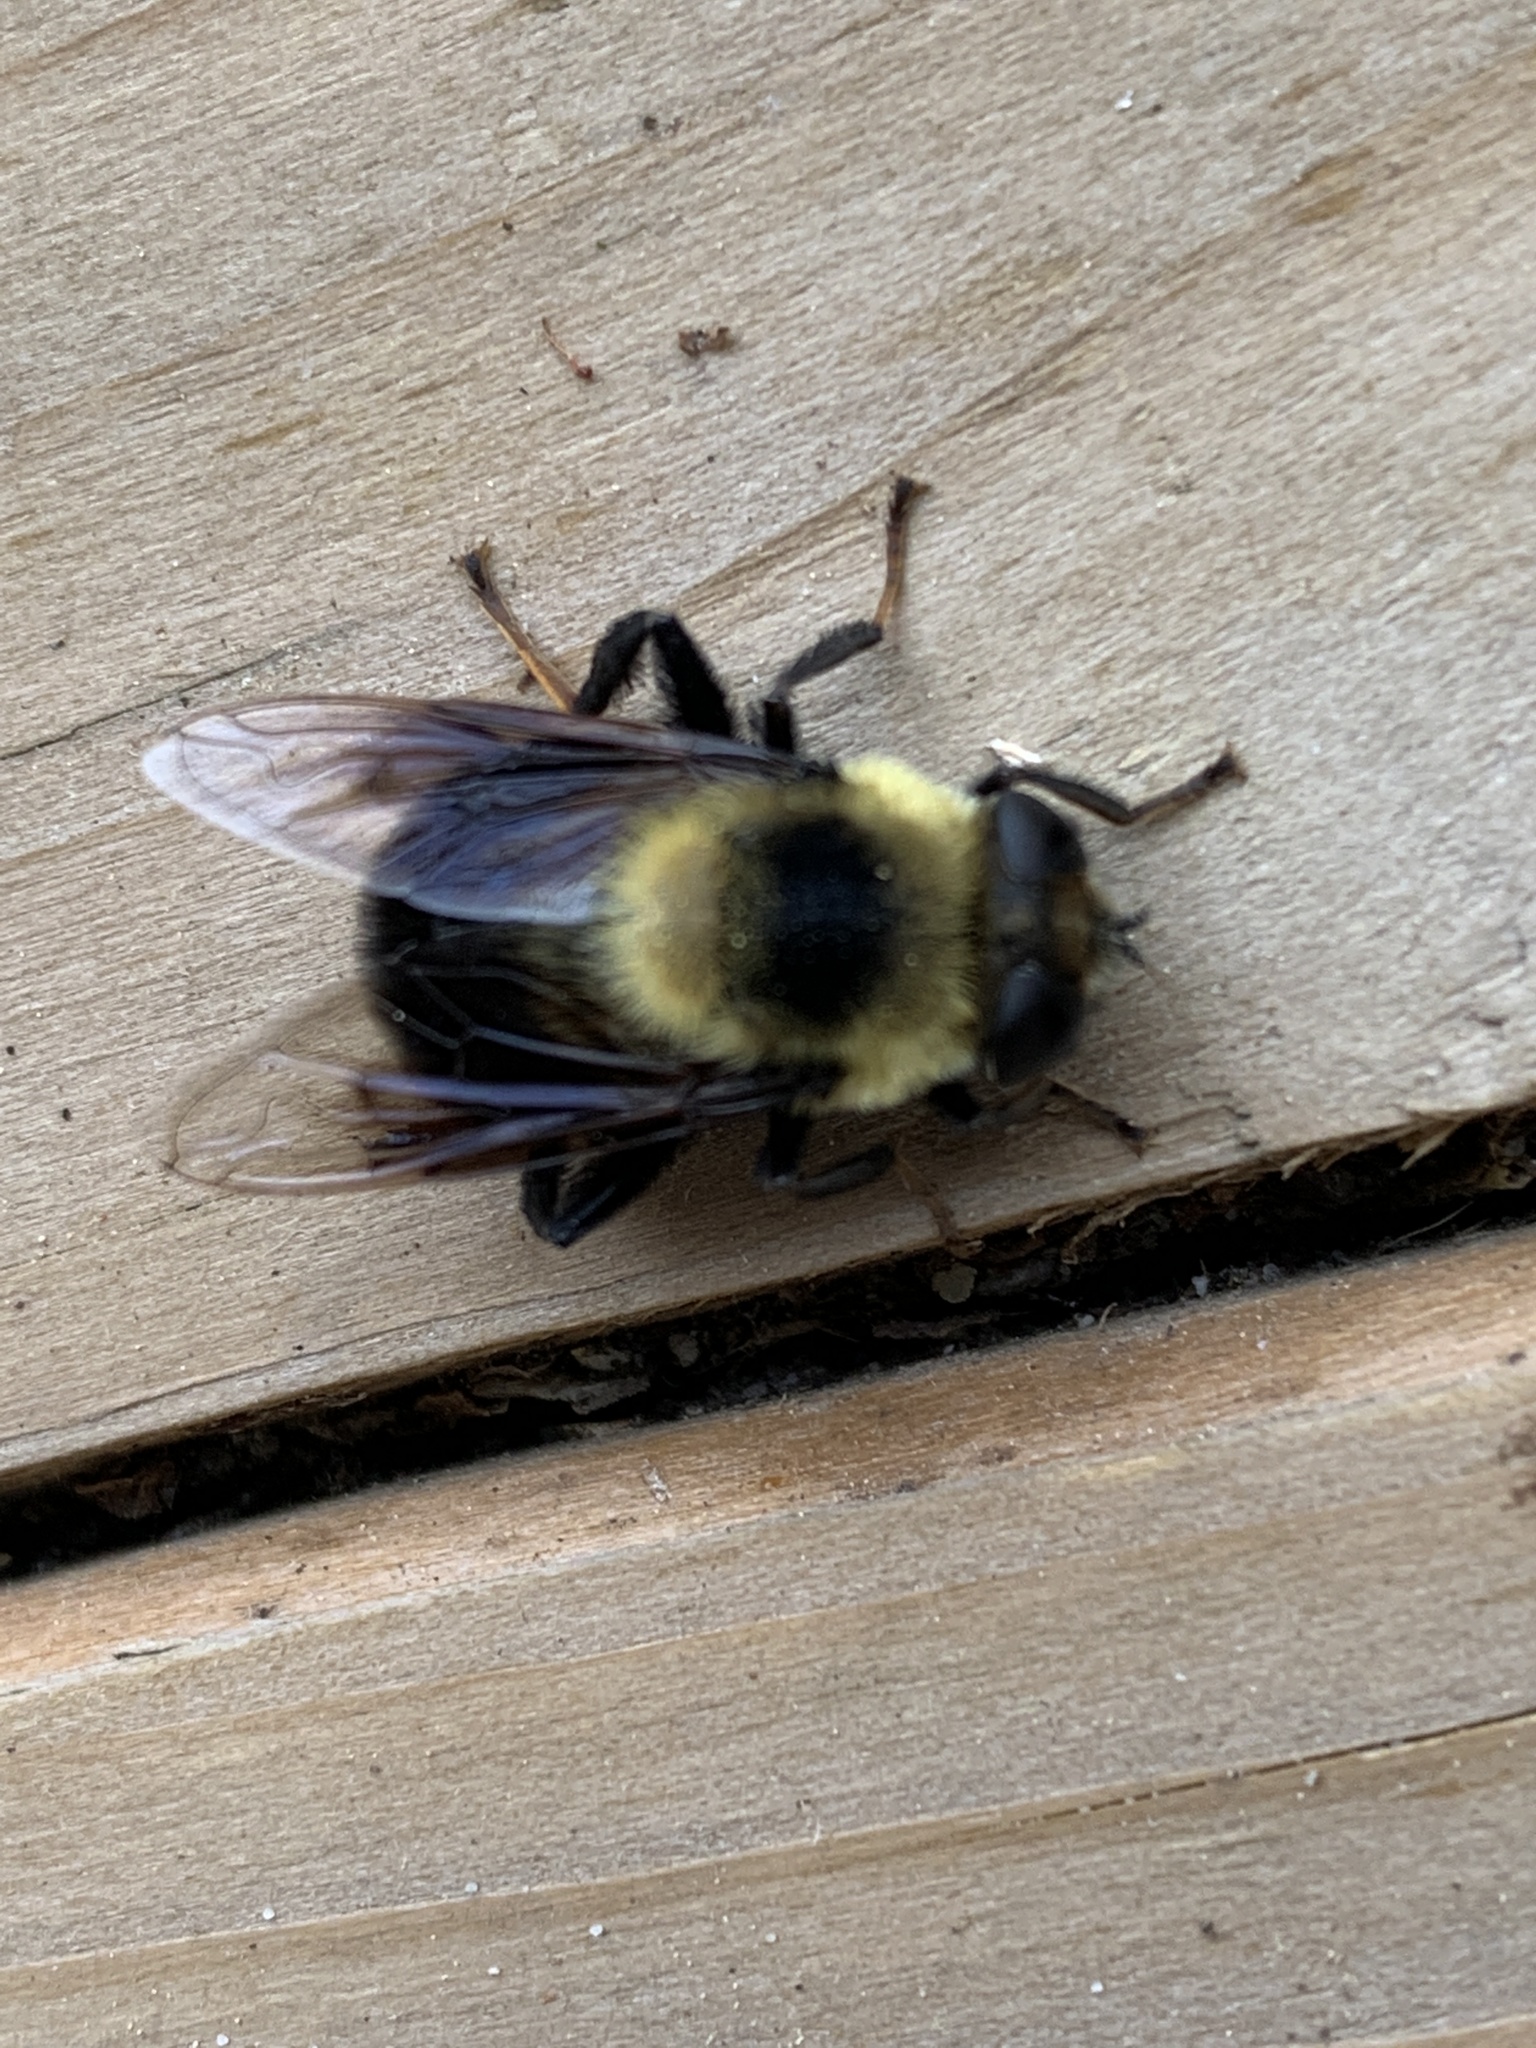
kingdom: Animalia
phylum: Arthropoda
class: Insecta
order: Diptera
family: Syrphidae
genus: Eristalis
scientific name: Eristalis flavipes
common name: Orange-legged drone fly
